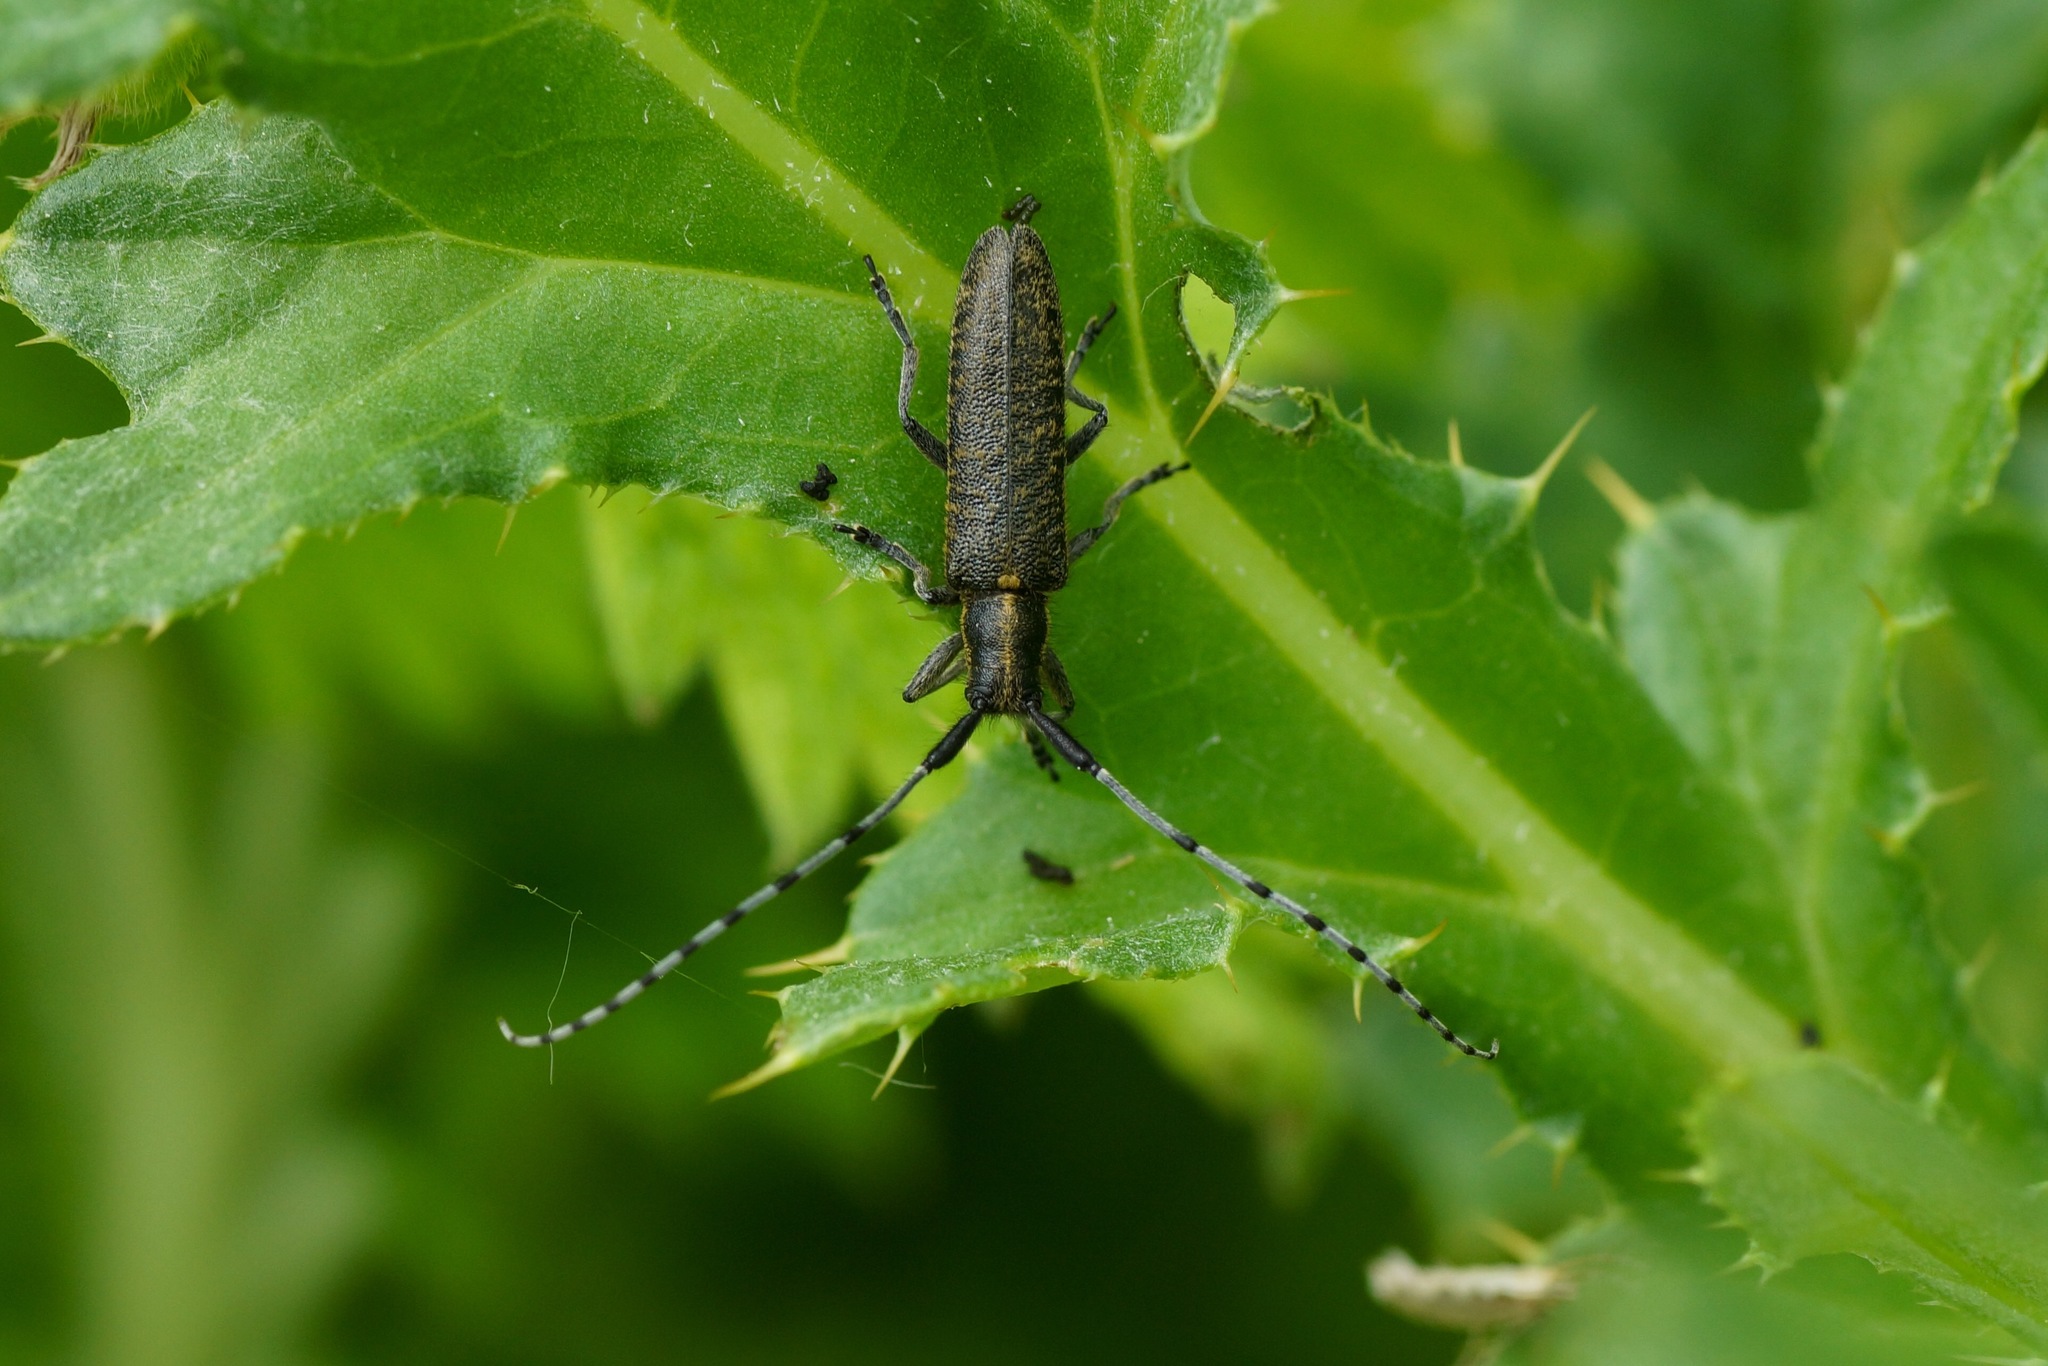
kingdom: Animalia
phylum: Arthropoda
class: Insecta
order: Coleoptera
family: Cerambycidae
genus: Agapanthia
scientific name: Agapanthia villosoviridescens
